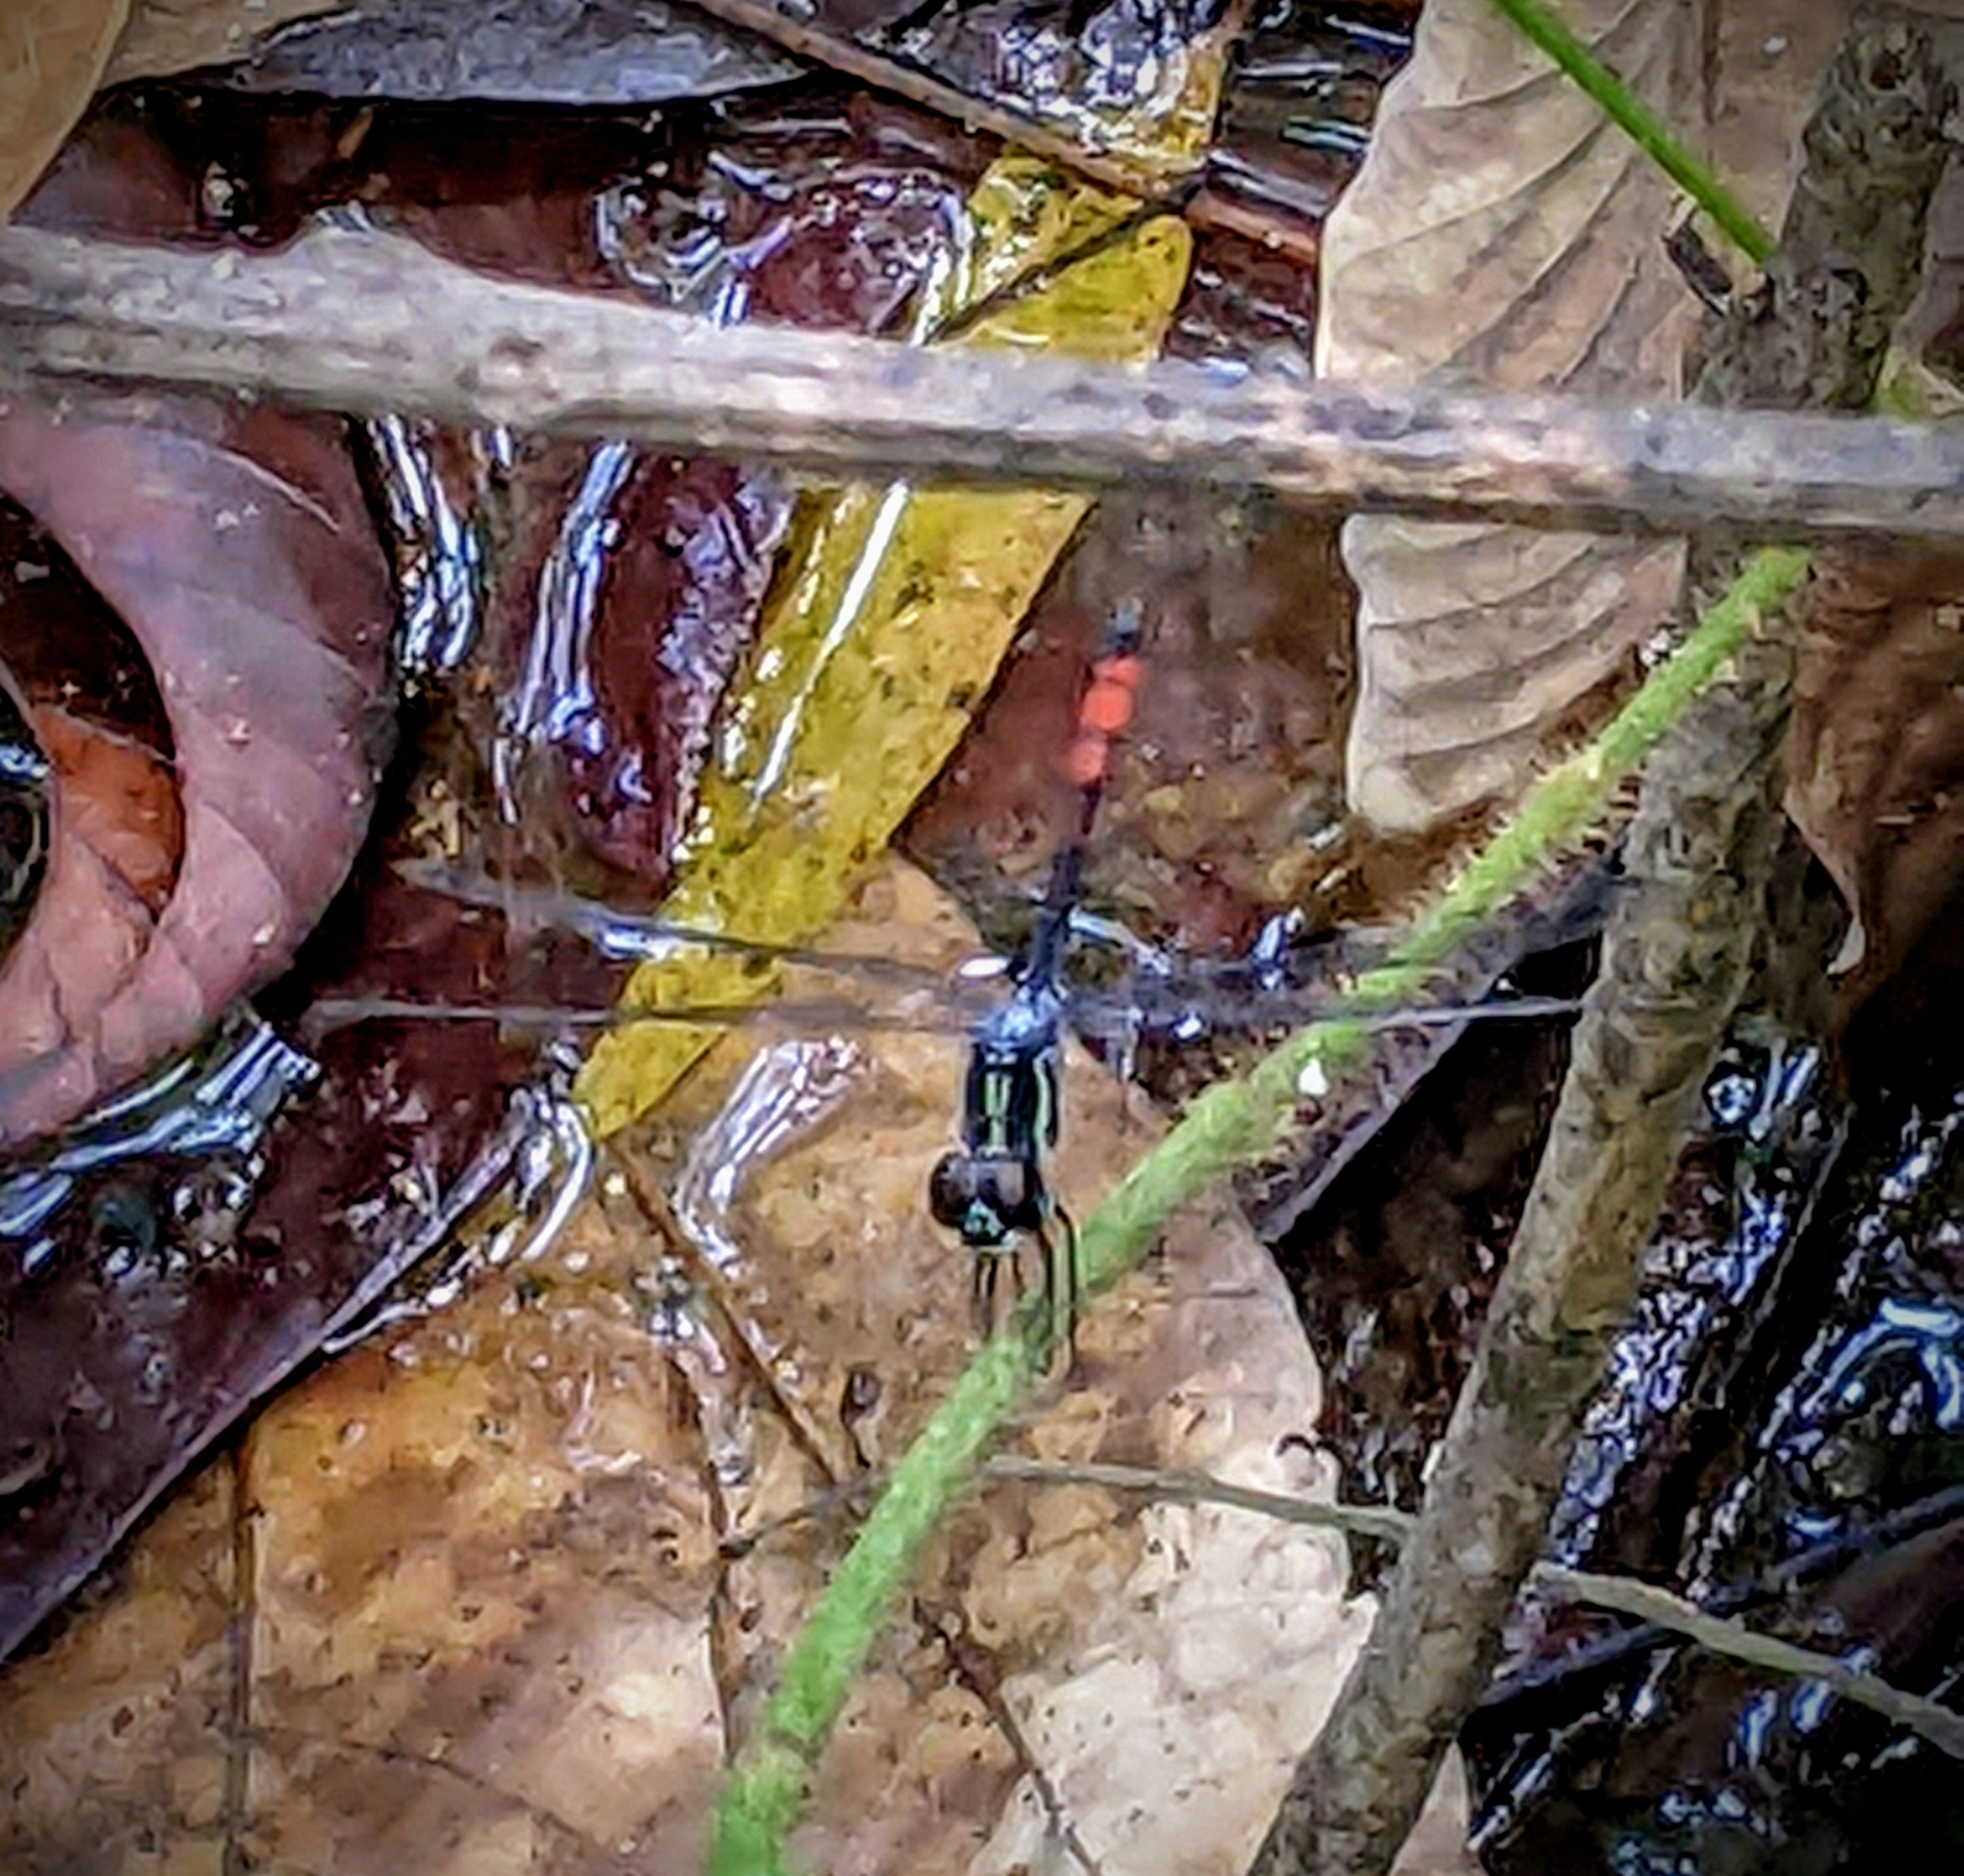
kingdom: Animalia
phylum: Arthropoda
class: Insecta
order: Odonata
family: Libellulidae
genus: Nesoxenia
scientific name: Nesoxenia lineata
